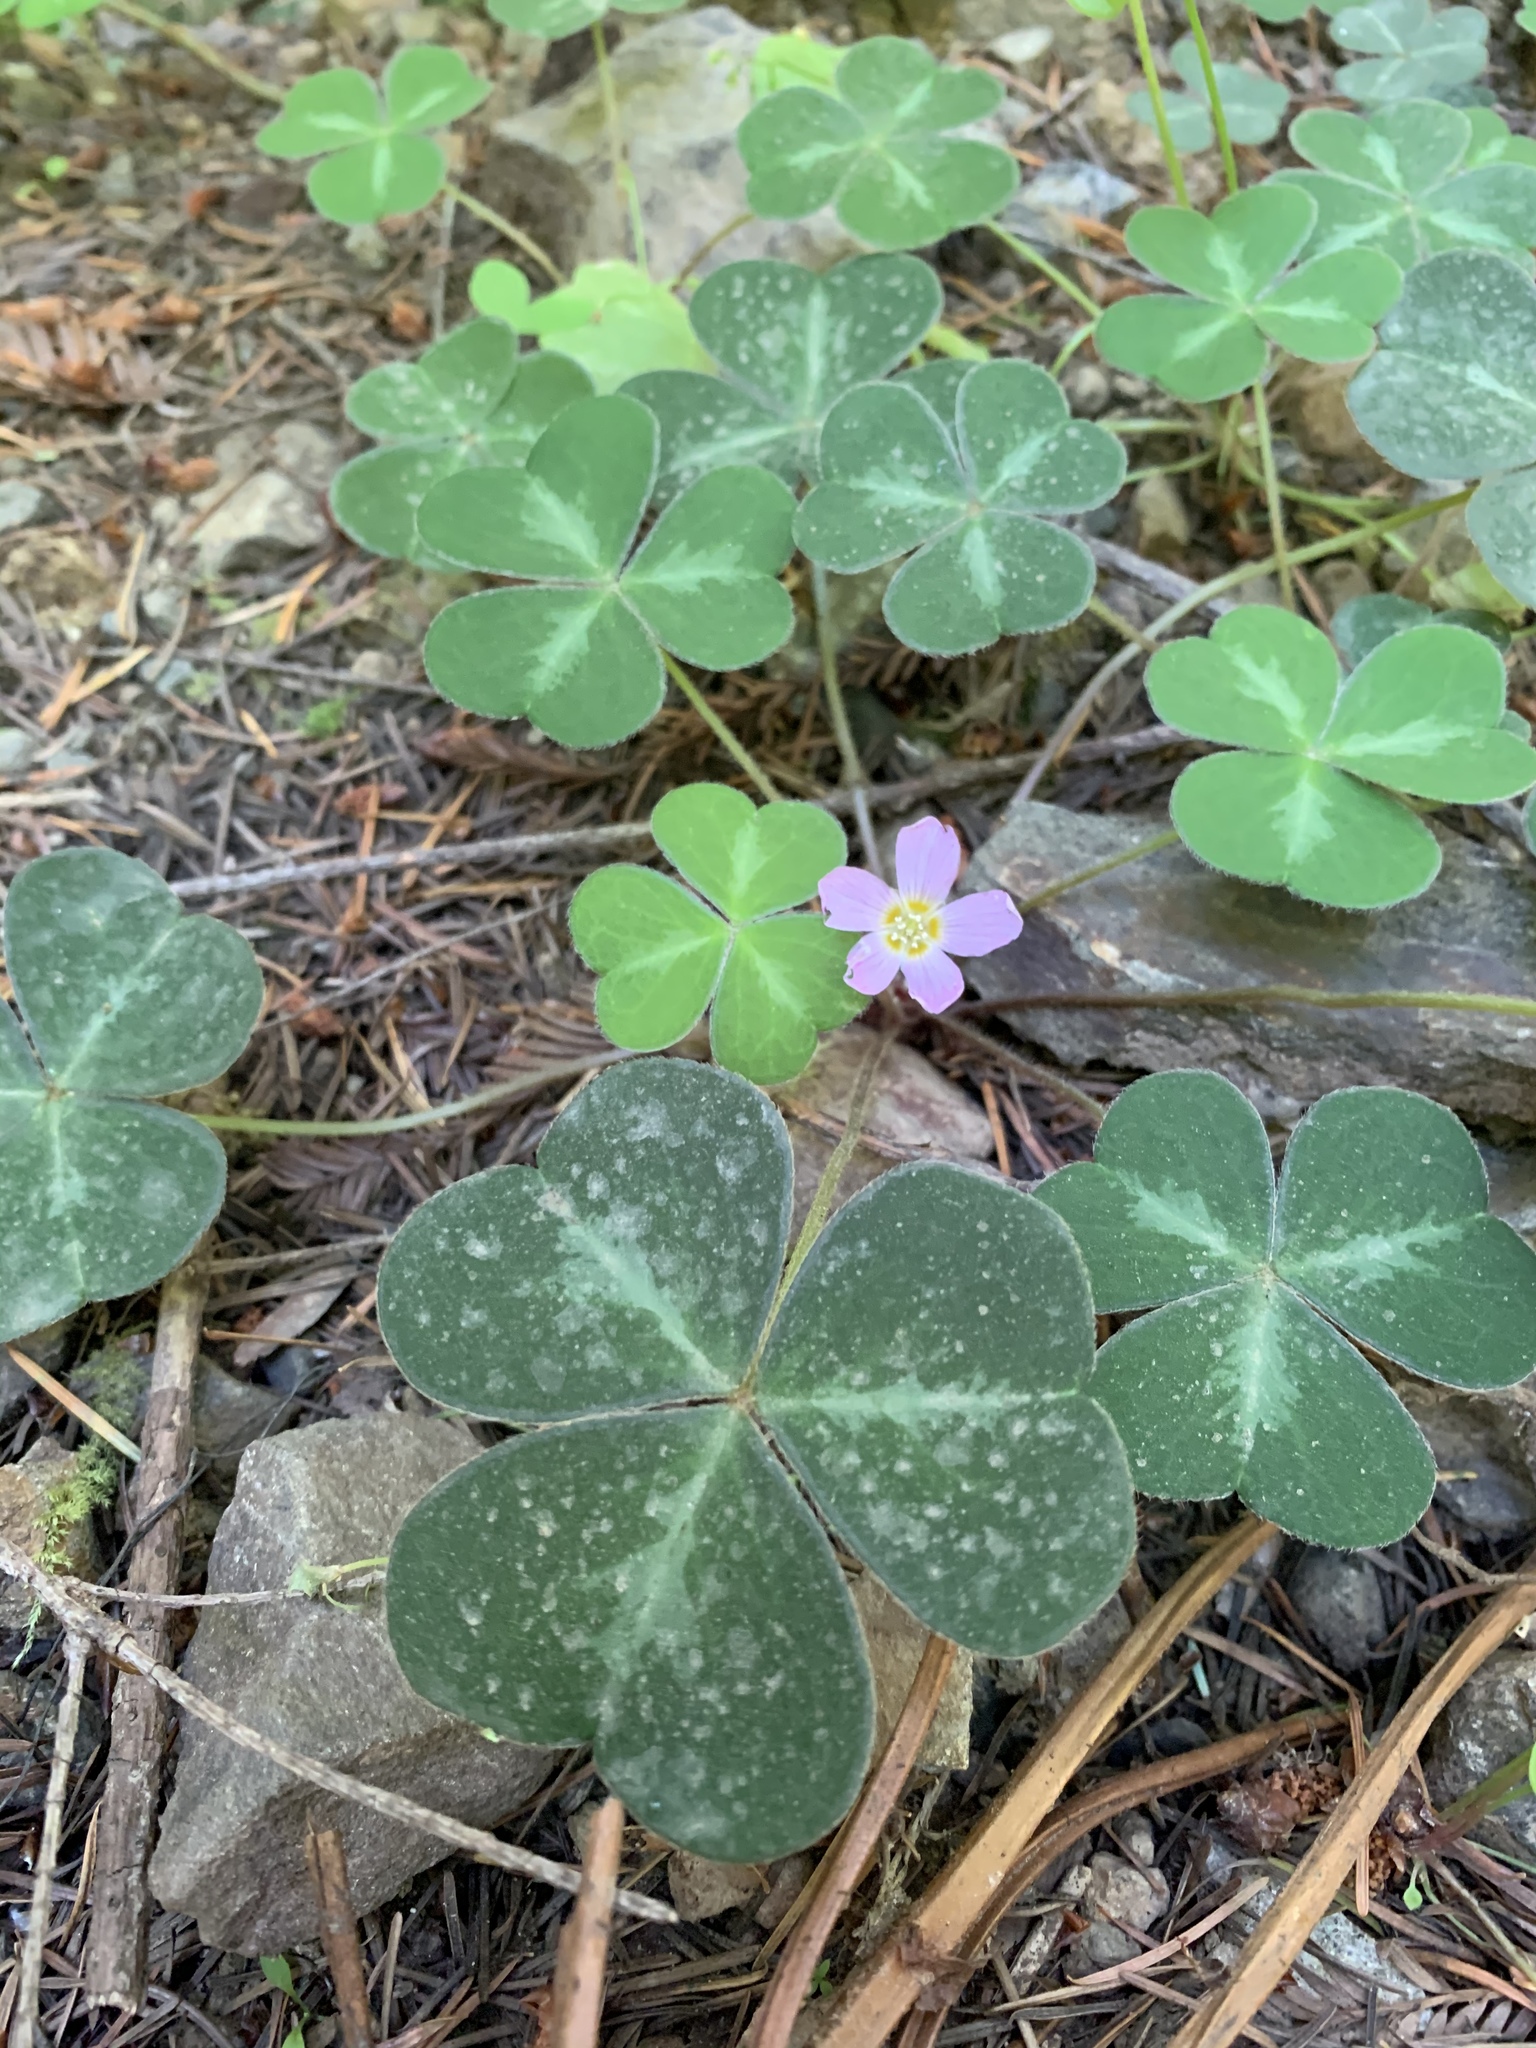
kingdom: Plantae
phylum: Tracheophyta
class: Magnoliopsida
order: Oxalidales
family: Oxalidaceae
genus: Oxalis
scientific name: Oxalis oregana
